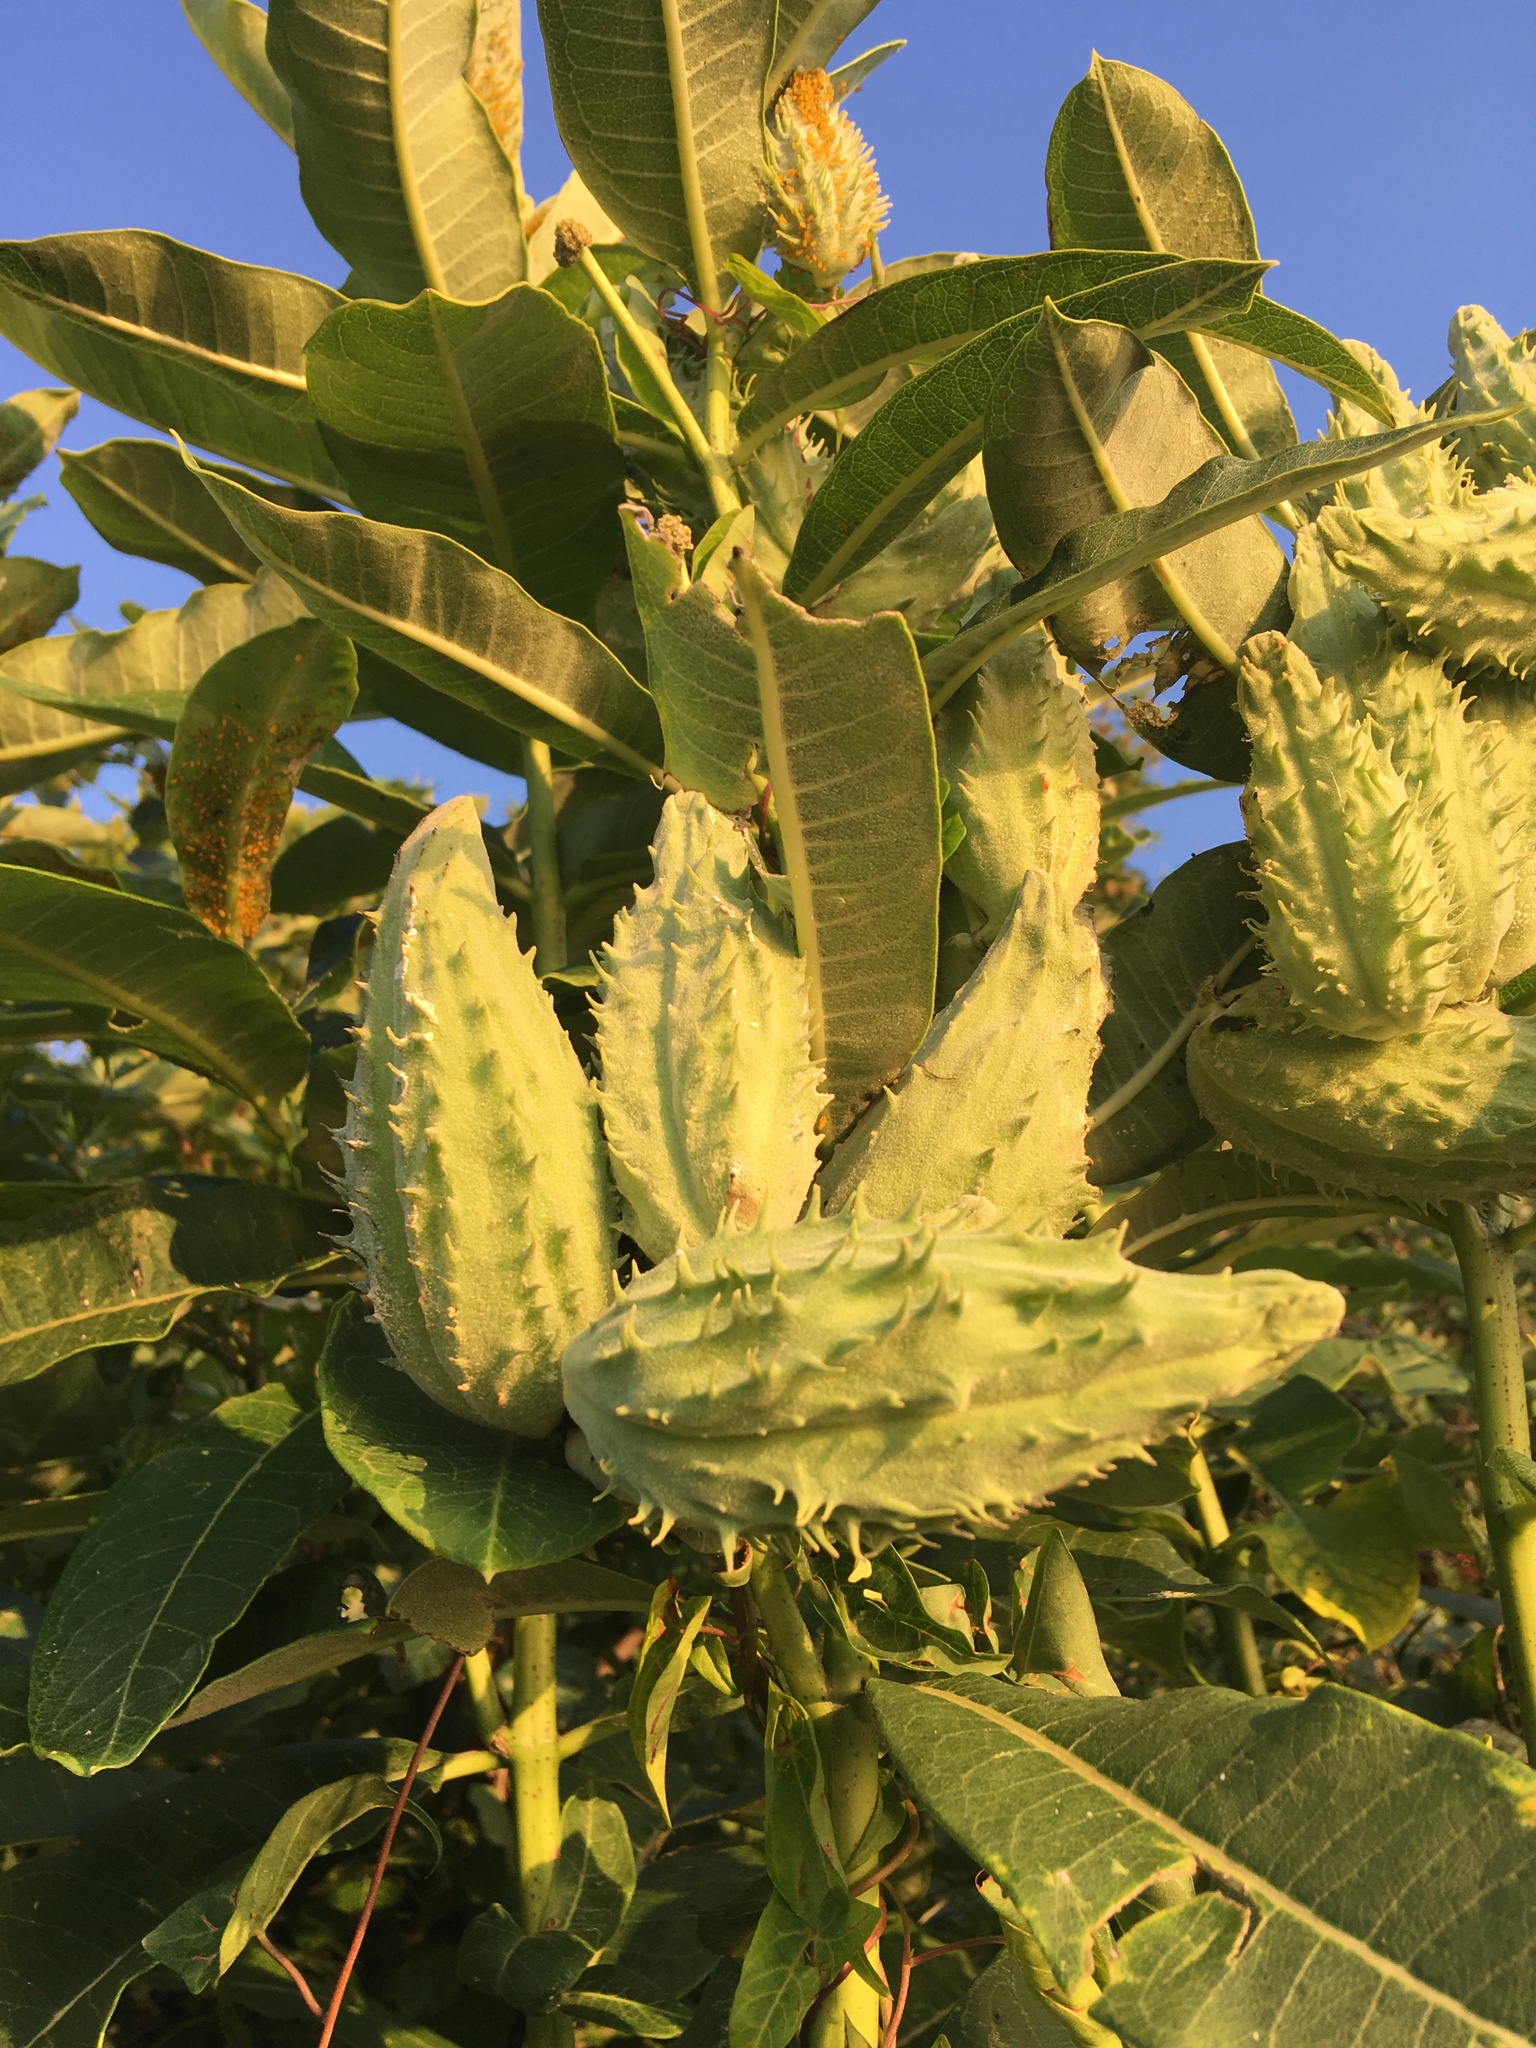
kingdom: Plantae
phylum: Tracheophyta
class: Magnoliopsida
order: Gentianales
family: Apocynaceae
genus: Asclepias
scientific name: Asclepias syriaca
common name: Common milkweed
